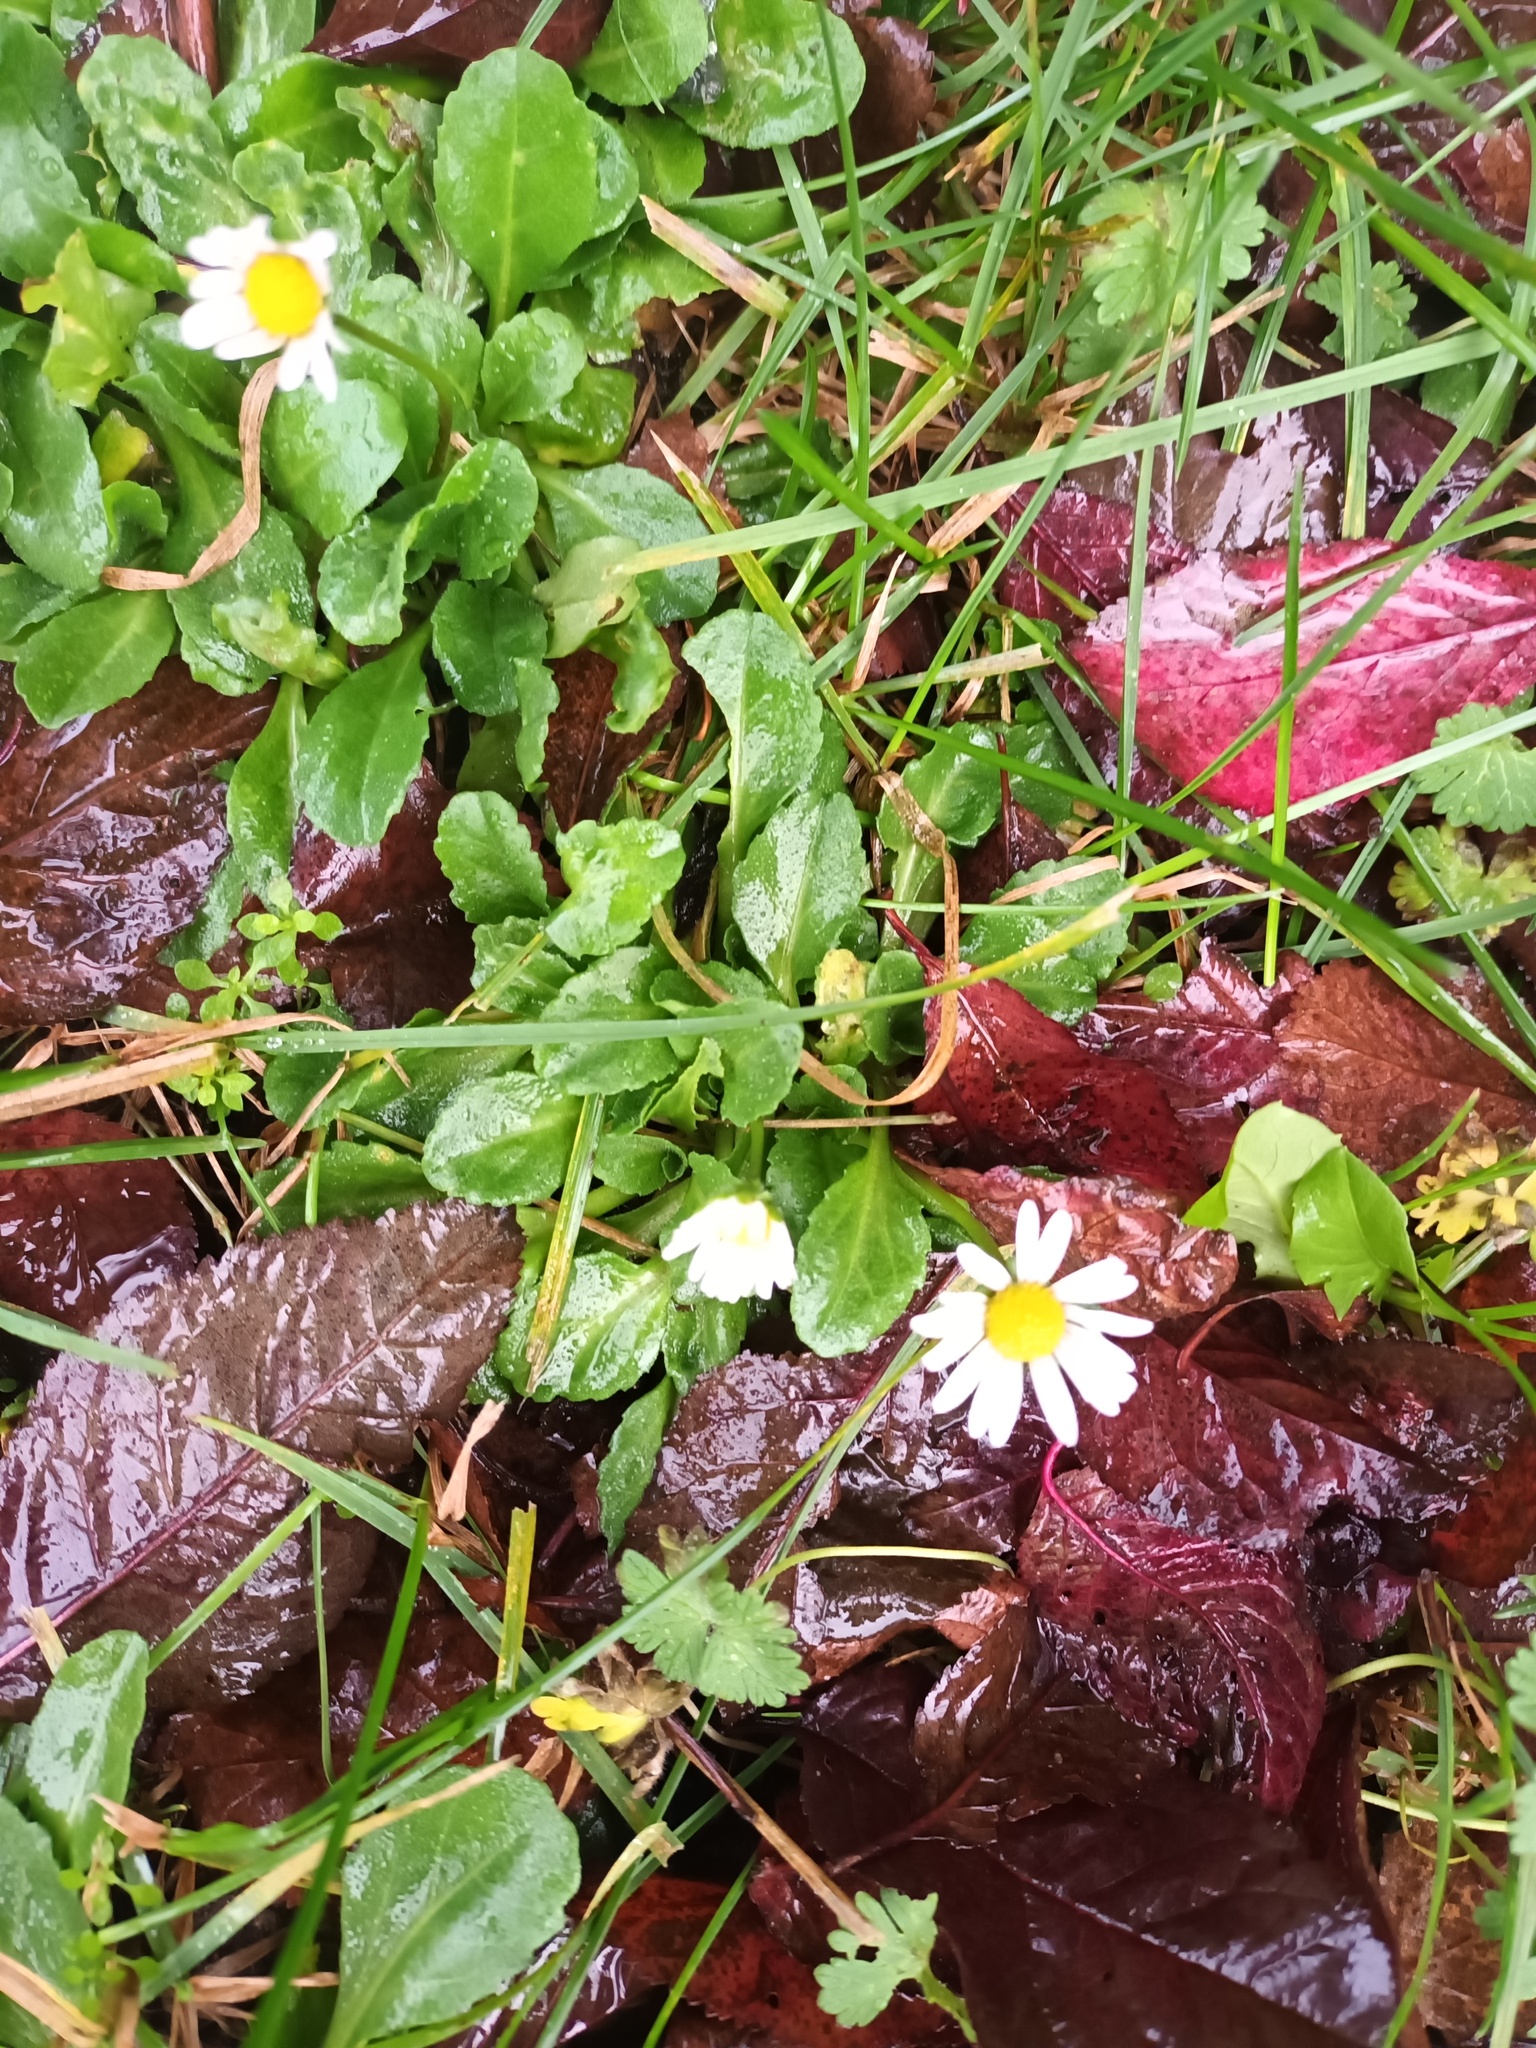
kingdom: Plantae
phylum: Tracheophyta
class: Magnoliopsida
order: Asterales
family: Asteraceae
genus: Bellis
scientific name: Bellis perennis
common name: Lawndaisy
